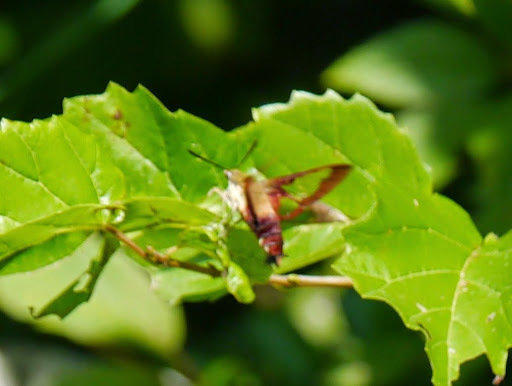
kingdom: Animalia
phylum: Arthropoda
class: Insecta
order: Lepidoptera
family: Sphingidae
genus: Hemaris
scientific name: Hemaris thysbe
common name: Common clear-wing
